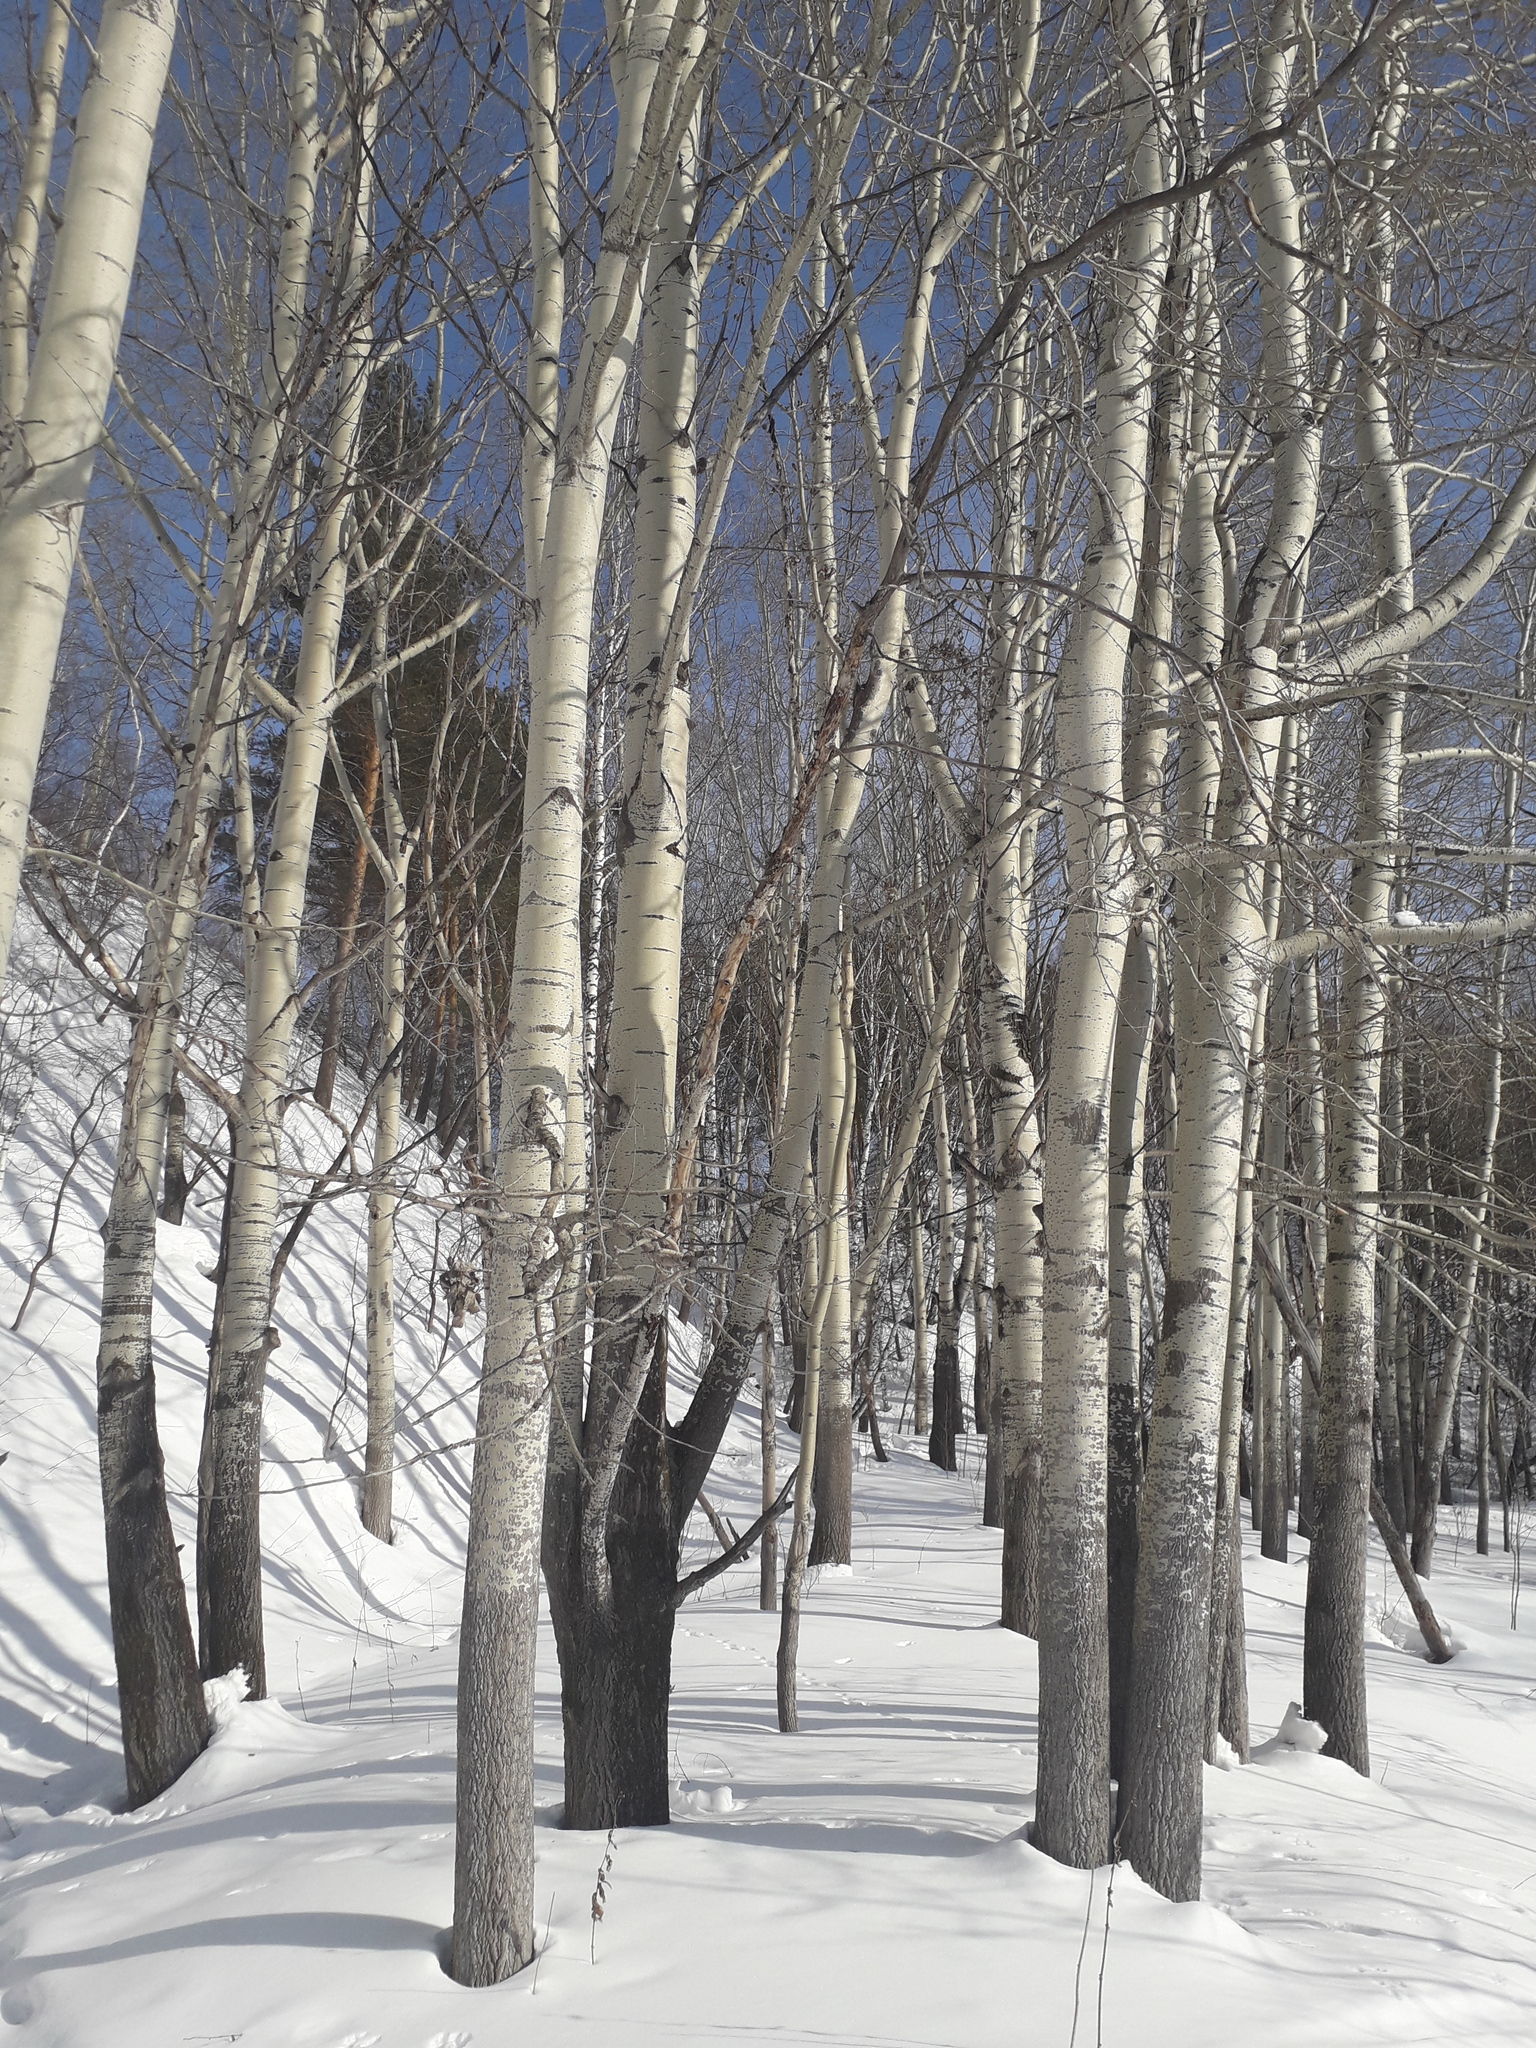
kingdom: Plantae
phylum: Tracheophyta
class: Magnoliopsida
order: Malpighiales
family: Salicaceae
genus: Populus
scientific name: Populus tremula
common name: European aspen
